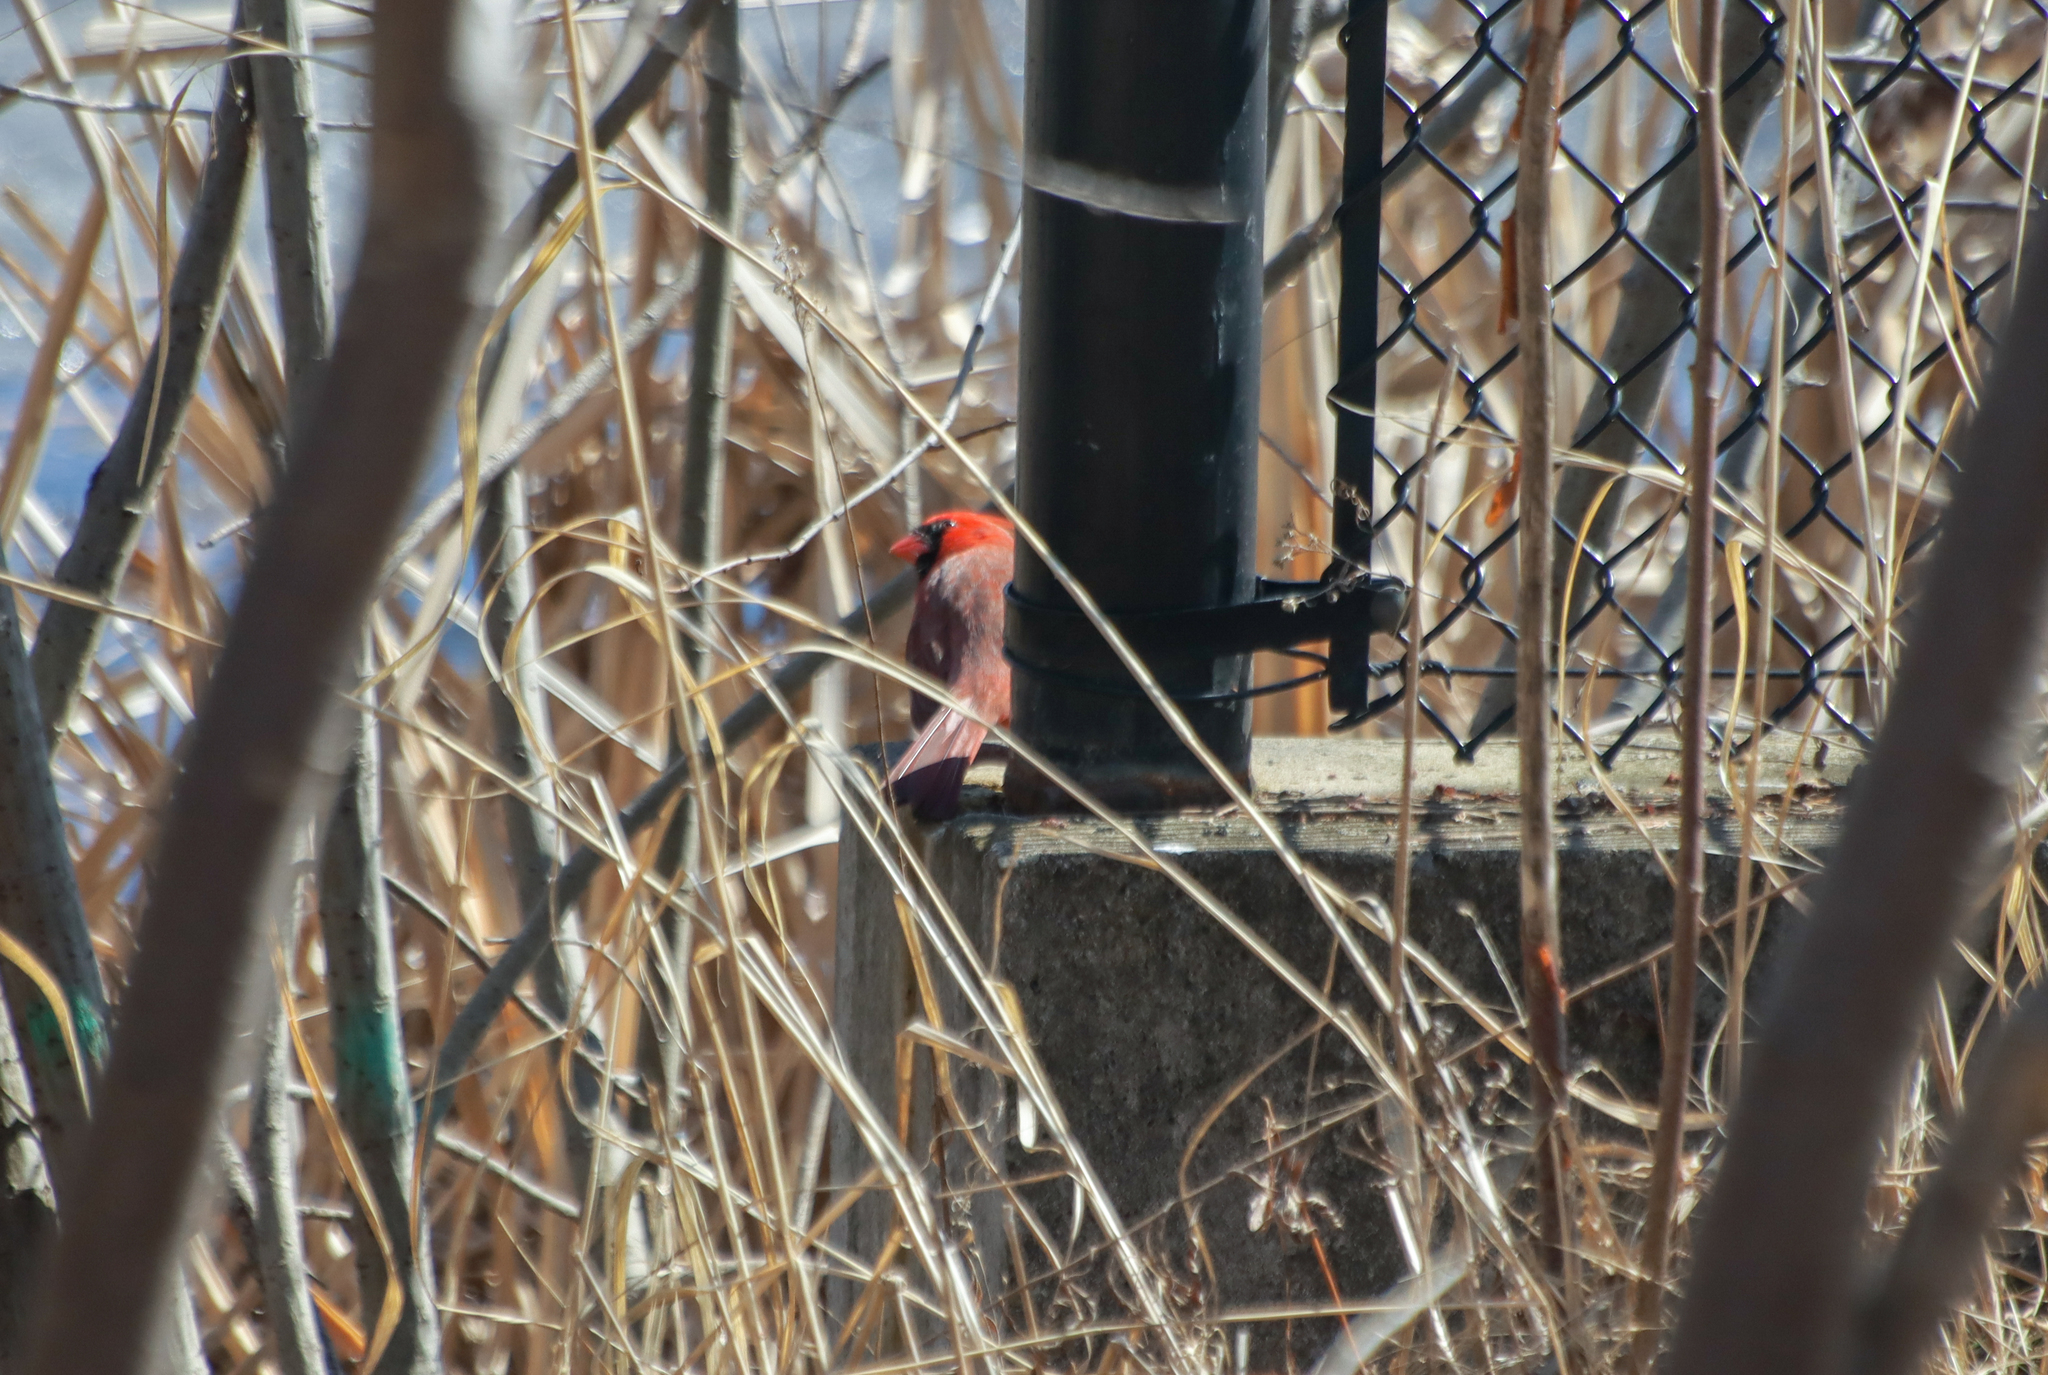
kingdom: Animalia
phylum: Chordata
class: Aves
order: Passeriformes
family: Cardinalidae
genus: Cardinalis
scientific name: Cardinalis cardinalis
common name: Northern cardinal
